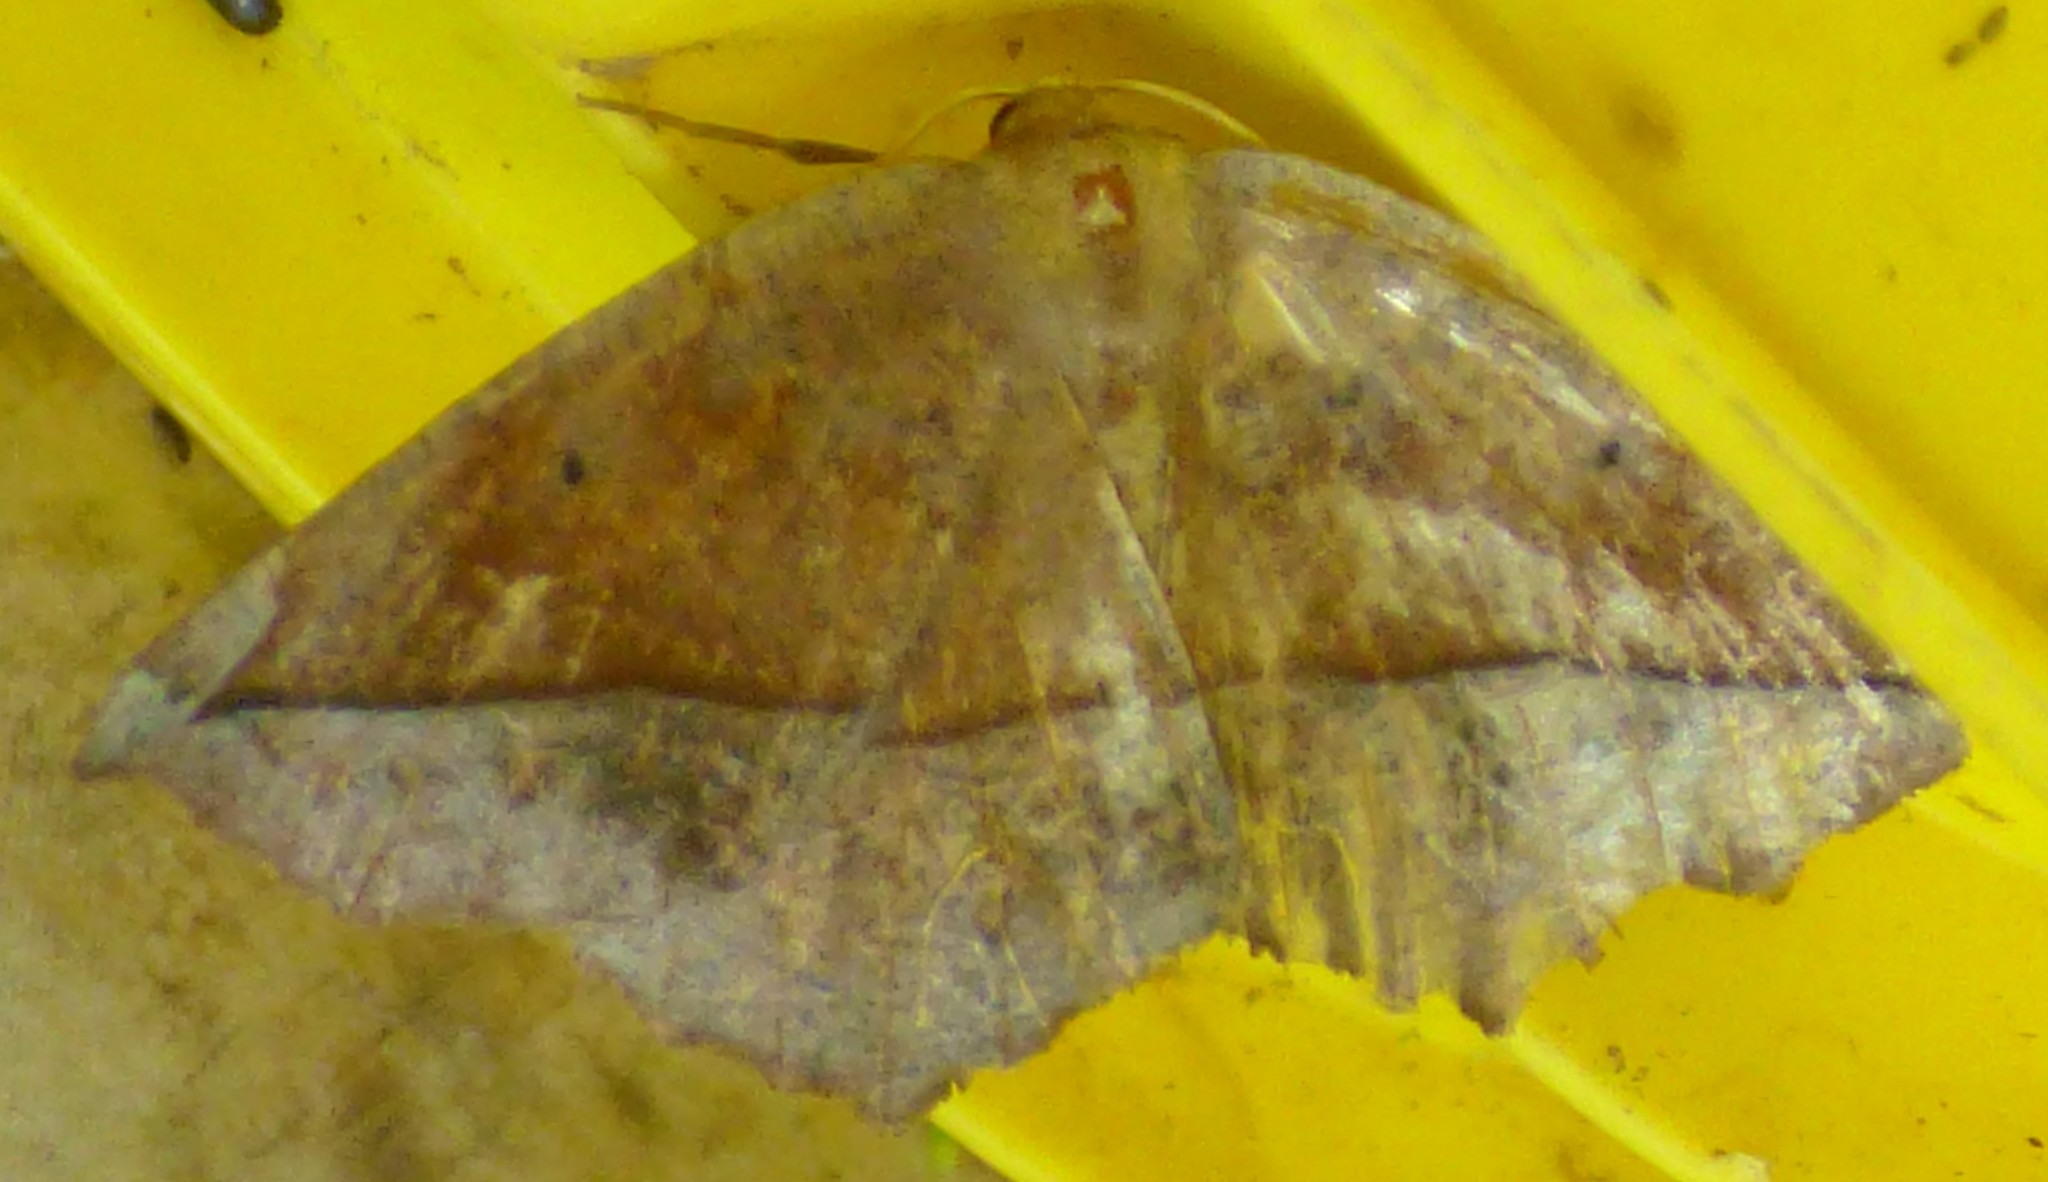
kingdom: Animalia
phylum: Arthropoda
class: Insecta
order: Lepidoptera
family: Geometridae
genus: Eutrapela
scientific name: Eutrapela clemataria
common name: Curved-toothed geometer
